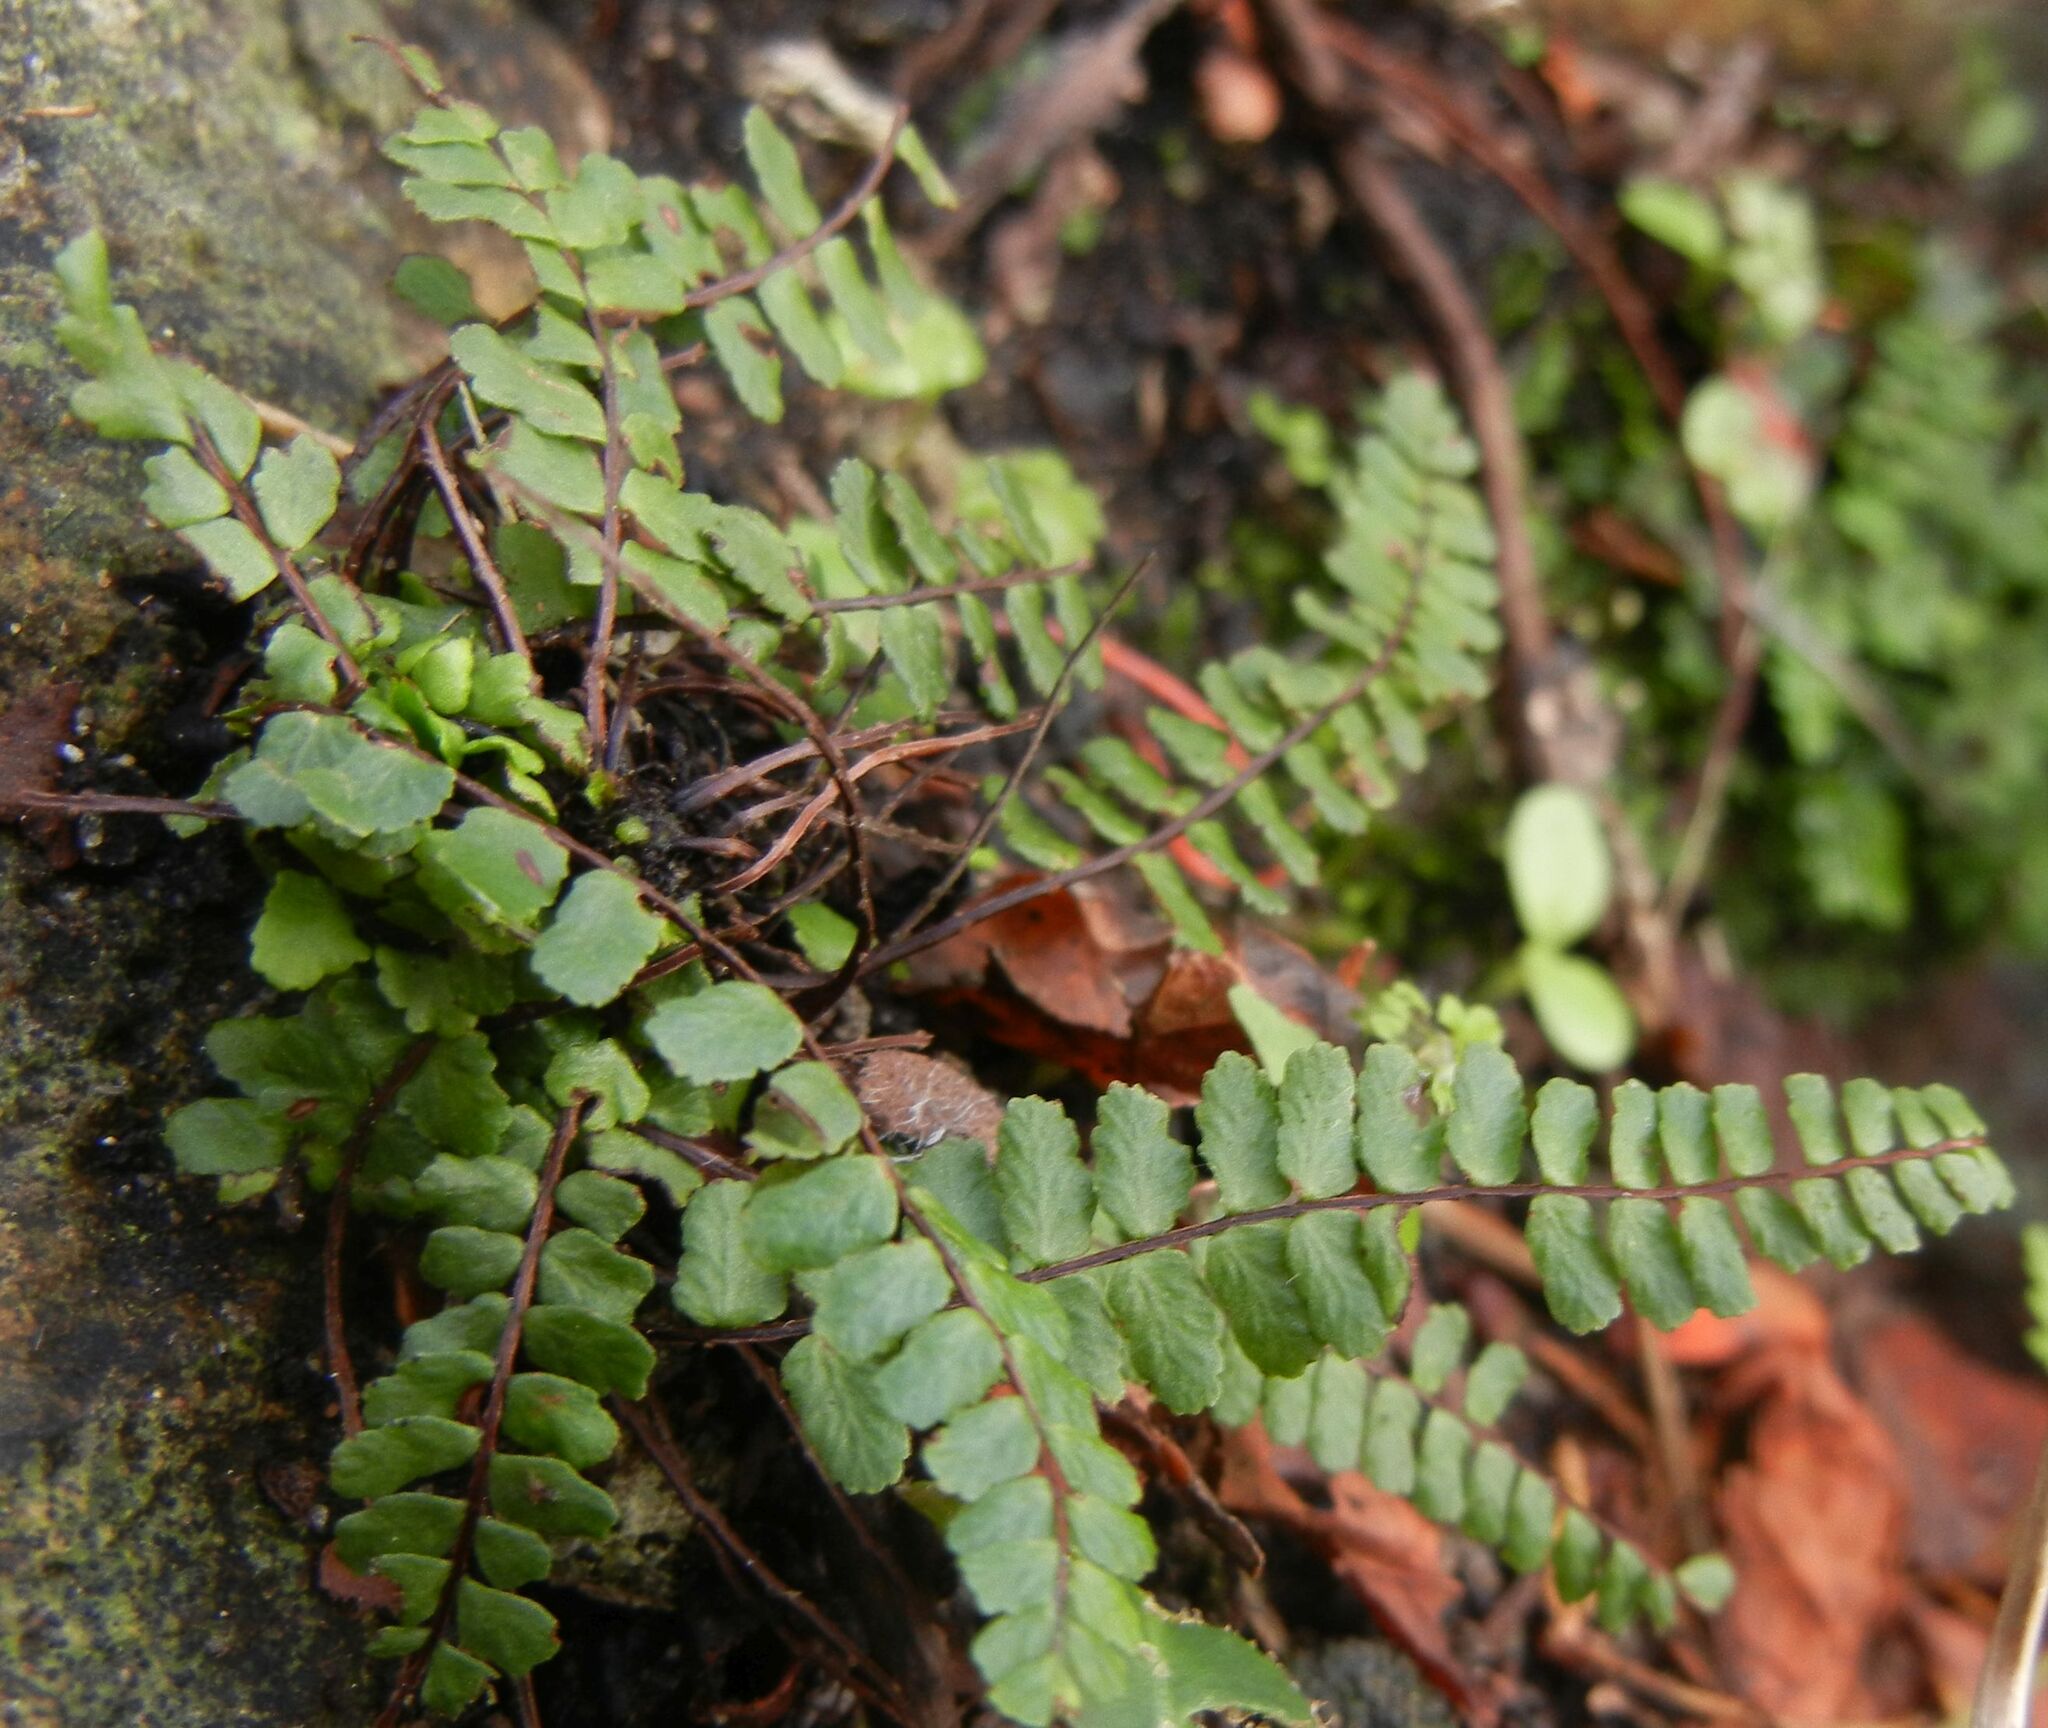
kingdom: Plantae
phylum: Tracheophyta
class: Polypodiopsida
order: Polypodiales
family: Aspleniaceae
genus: Asplenium
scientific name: Asplenium trichomanes
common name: Maidenhair spleenwort
